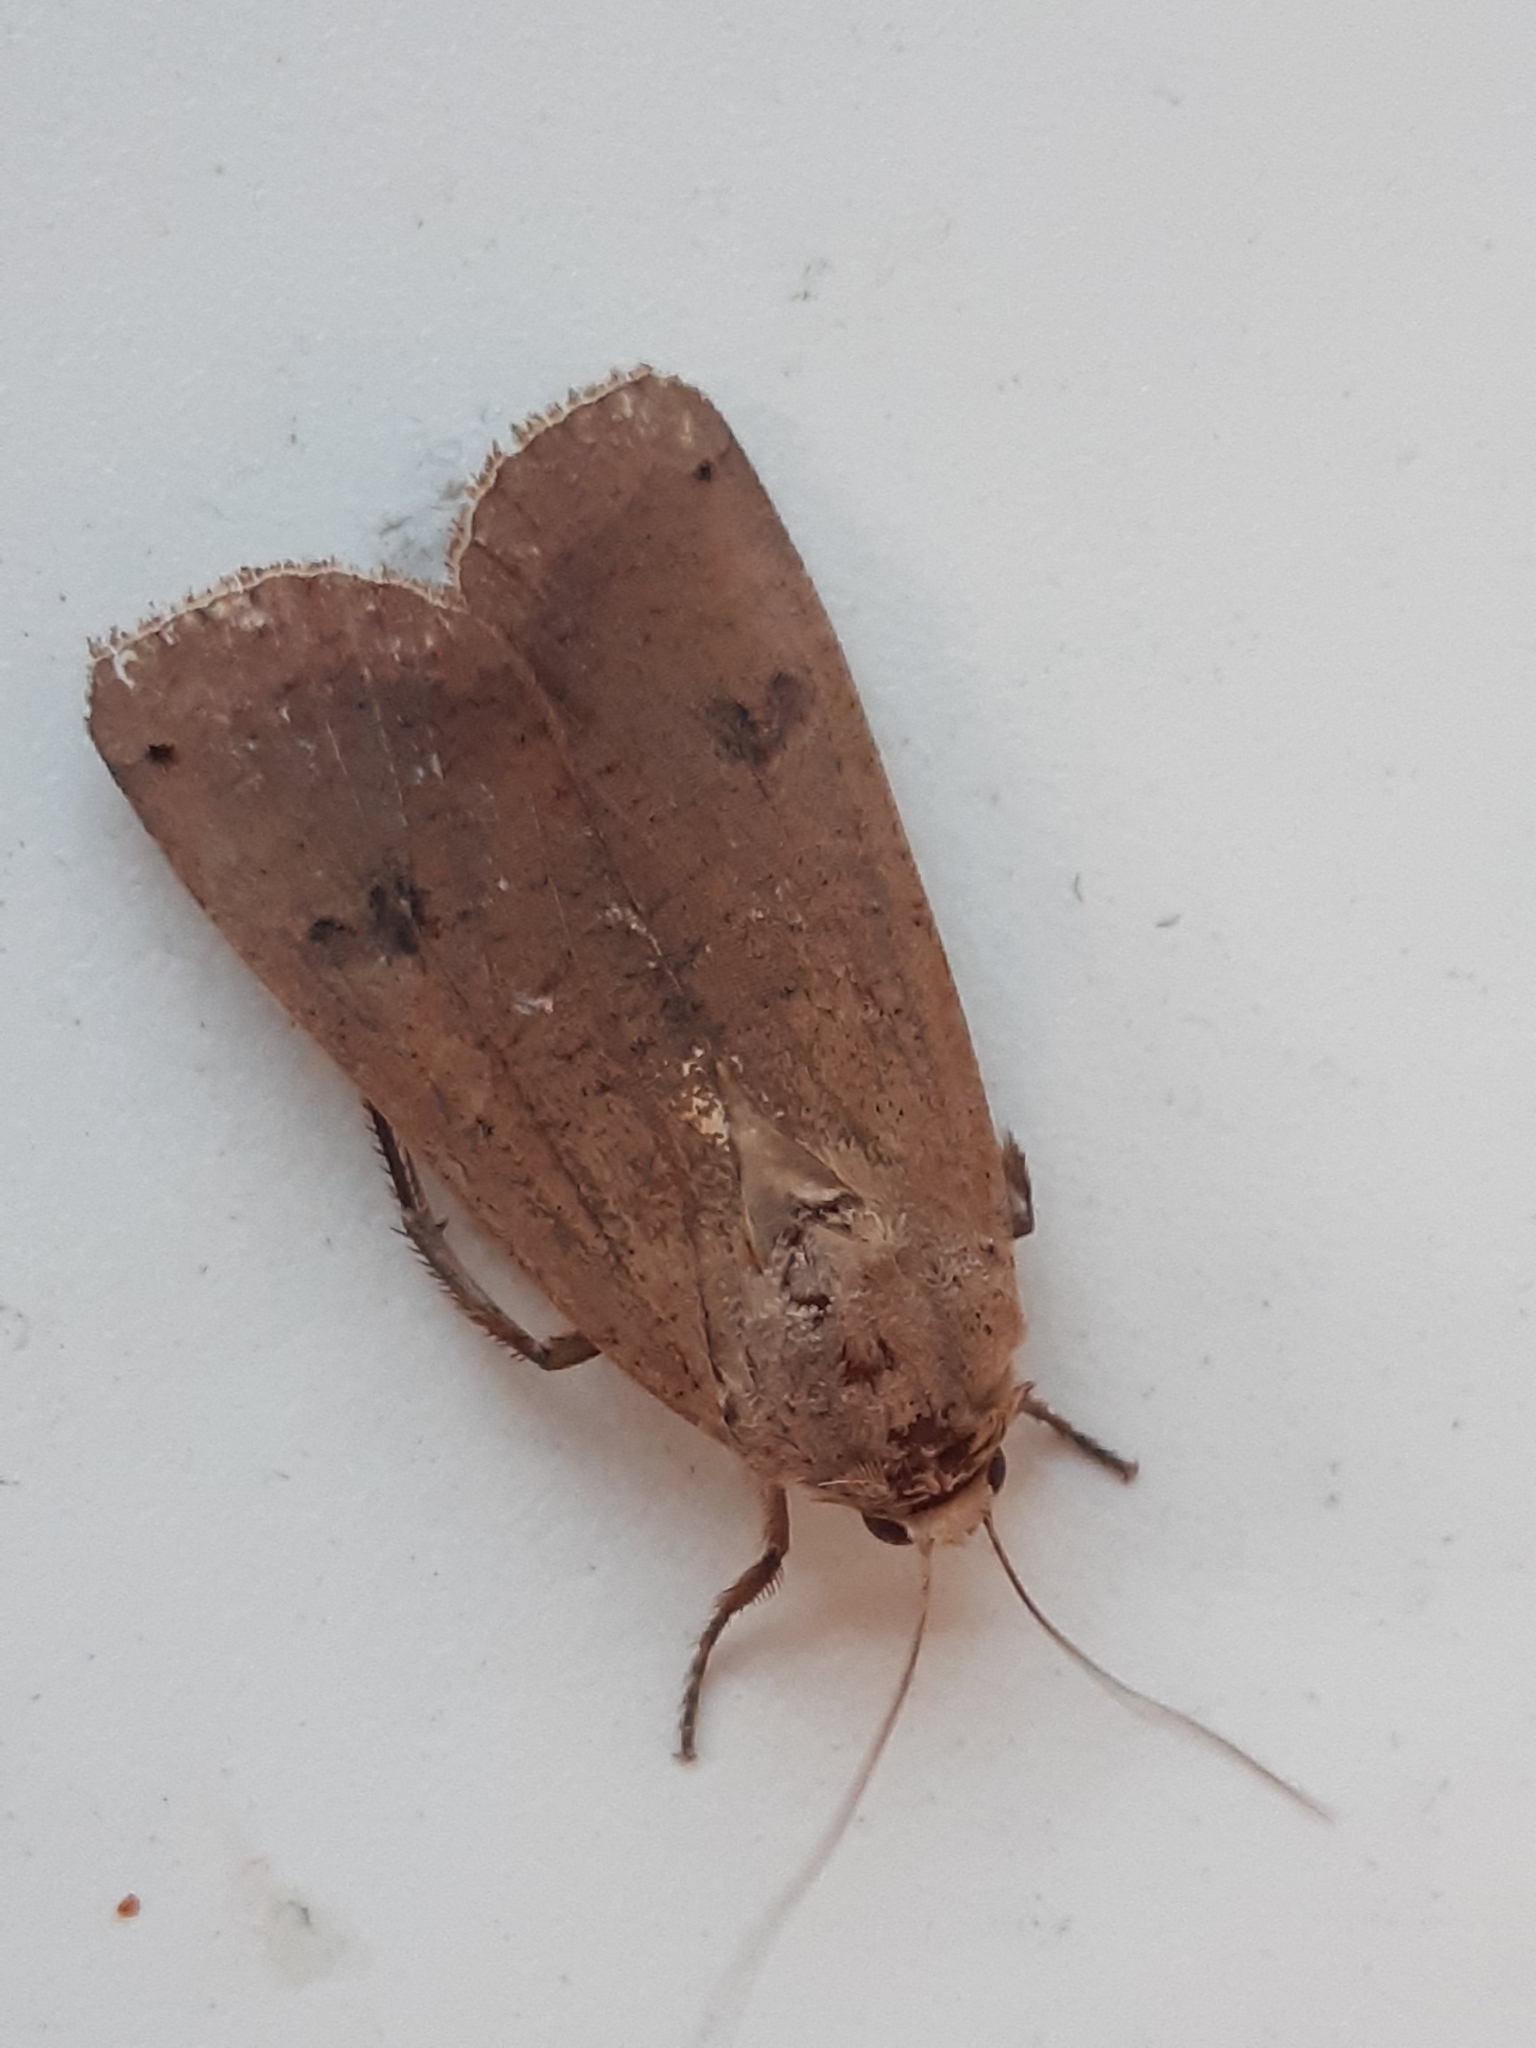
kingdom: Animalia
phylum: Arthropoda
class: Insecta
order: Lepidoptera
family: Noctuidae
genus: Noctua
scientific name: Noctua pronuba
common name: Large yellow underwing
